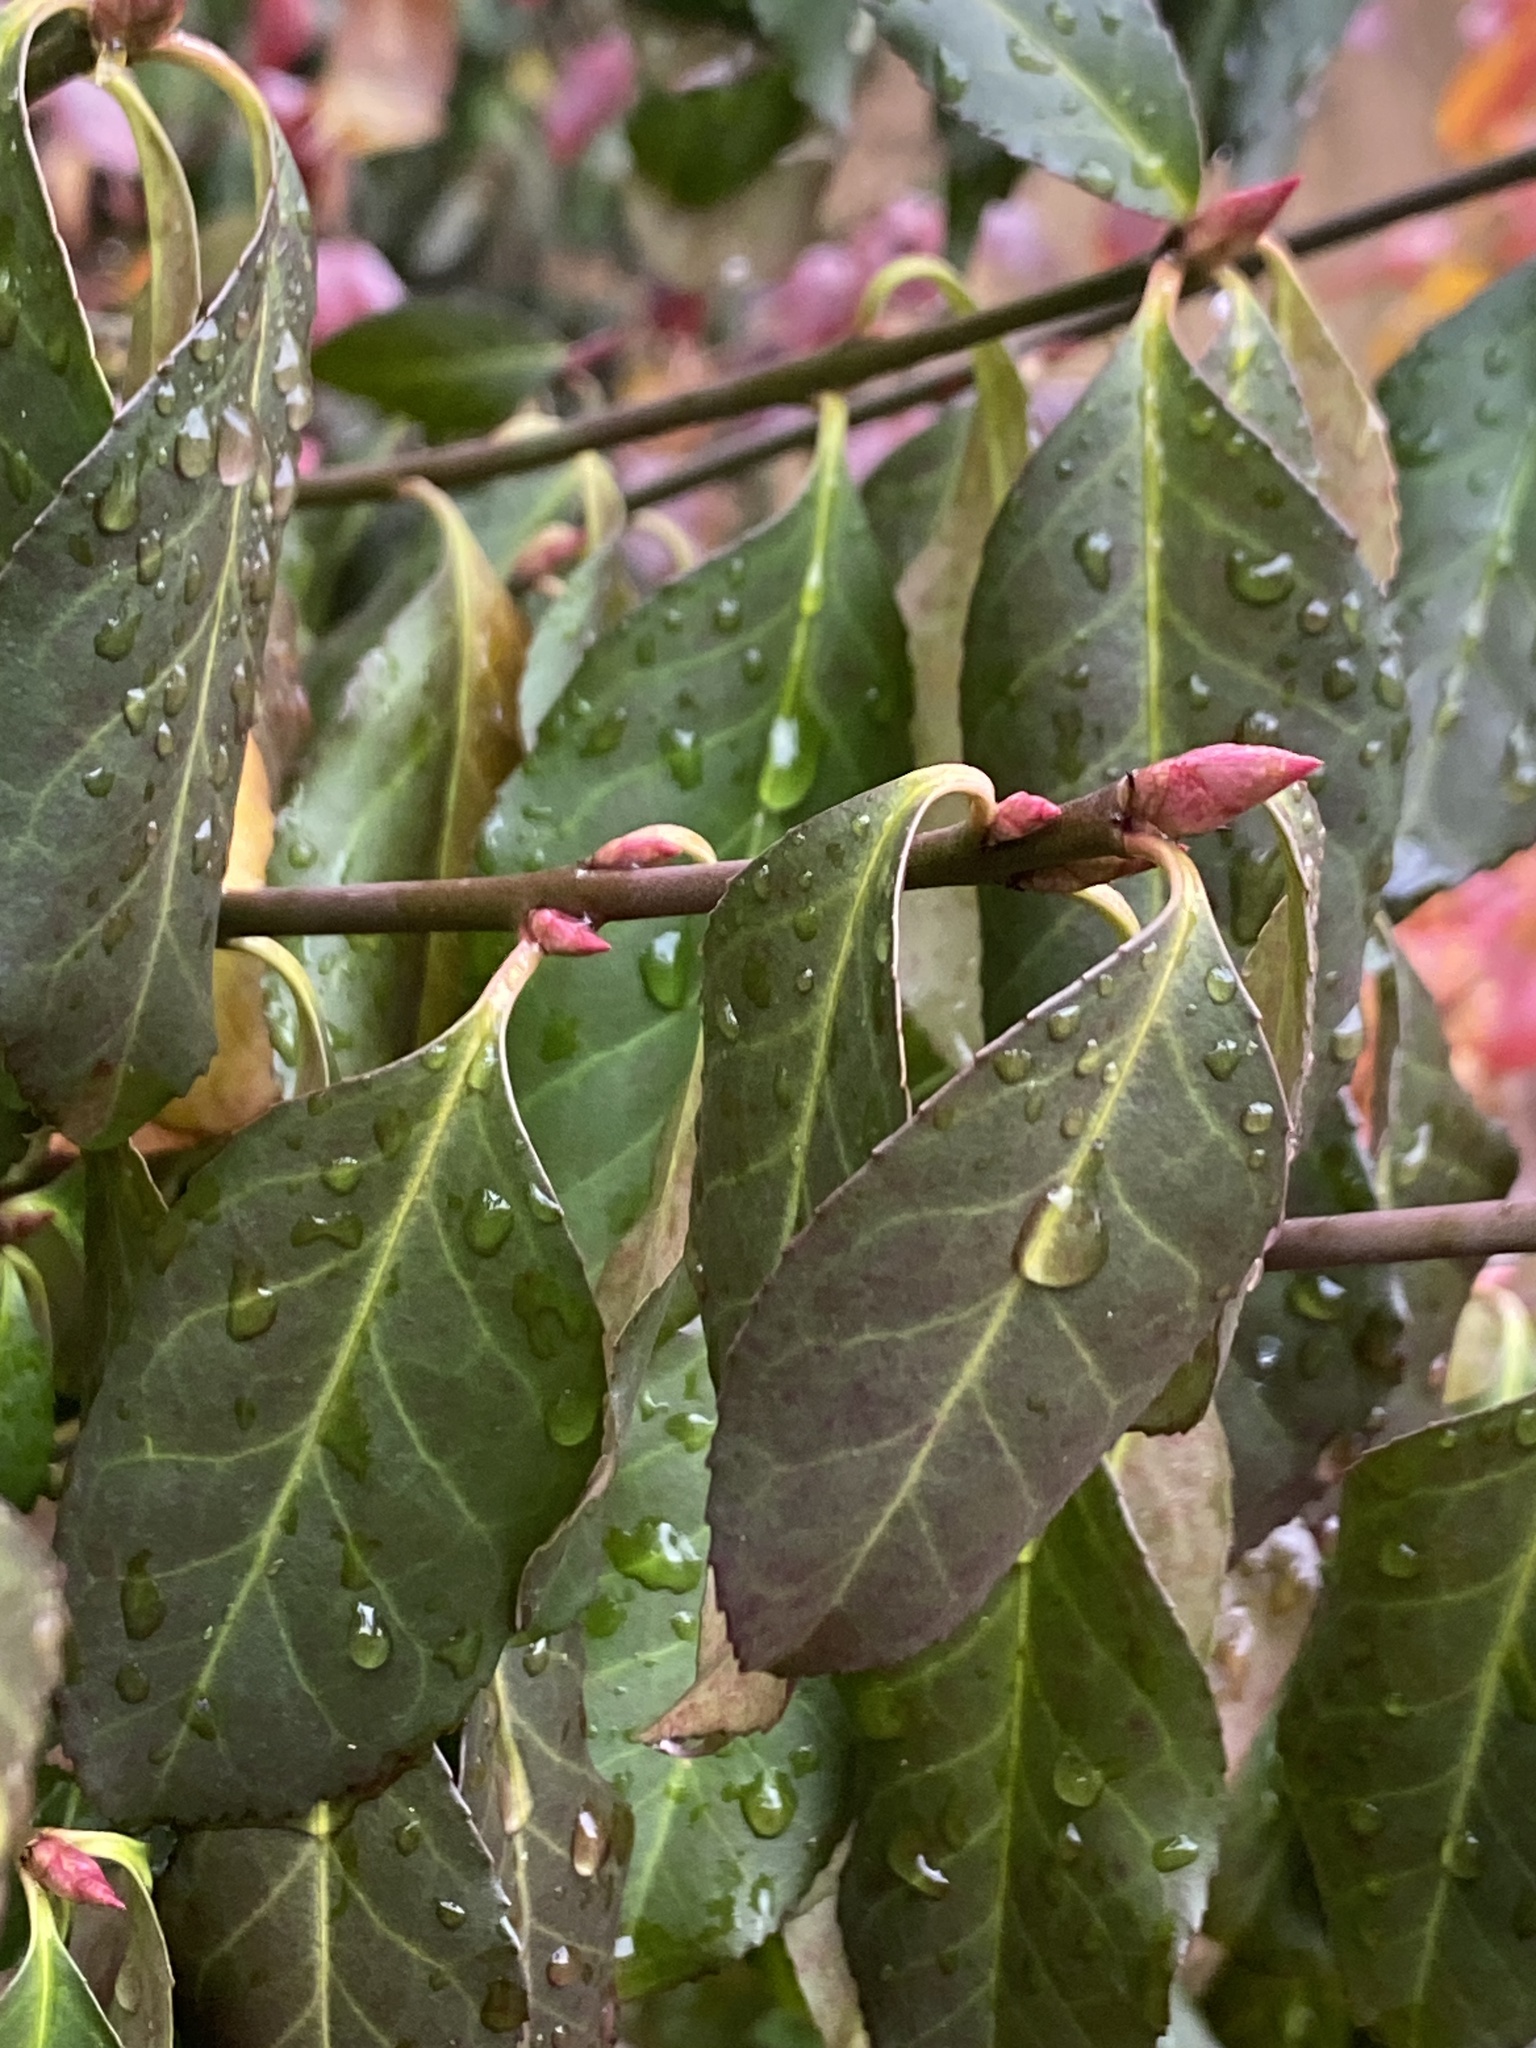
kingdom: Plantae
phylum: Tracheophyta
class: Magnoliopsida
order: Celastrales
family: Celastraceae
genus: Euonymus
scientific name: Euonymus fortunei
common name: Climbing euonymus
